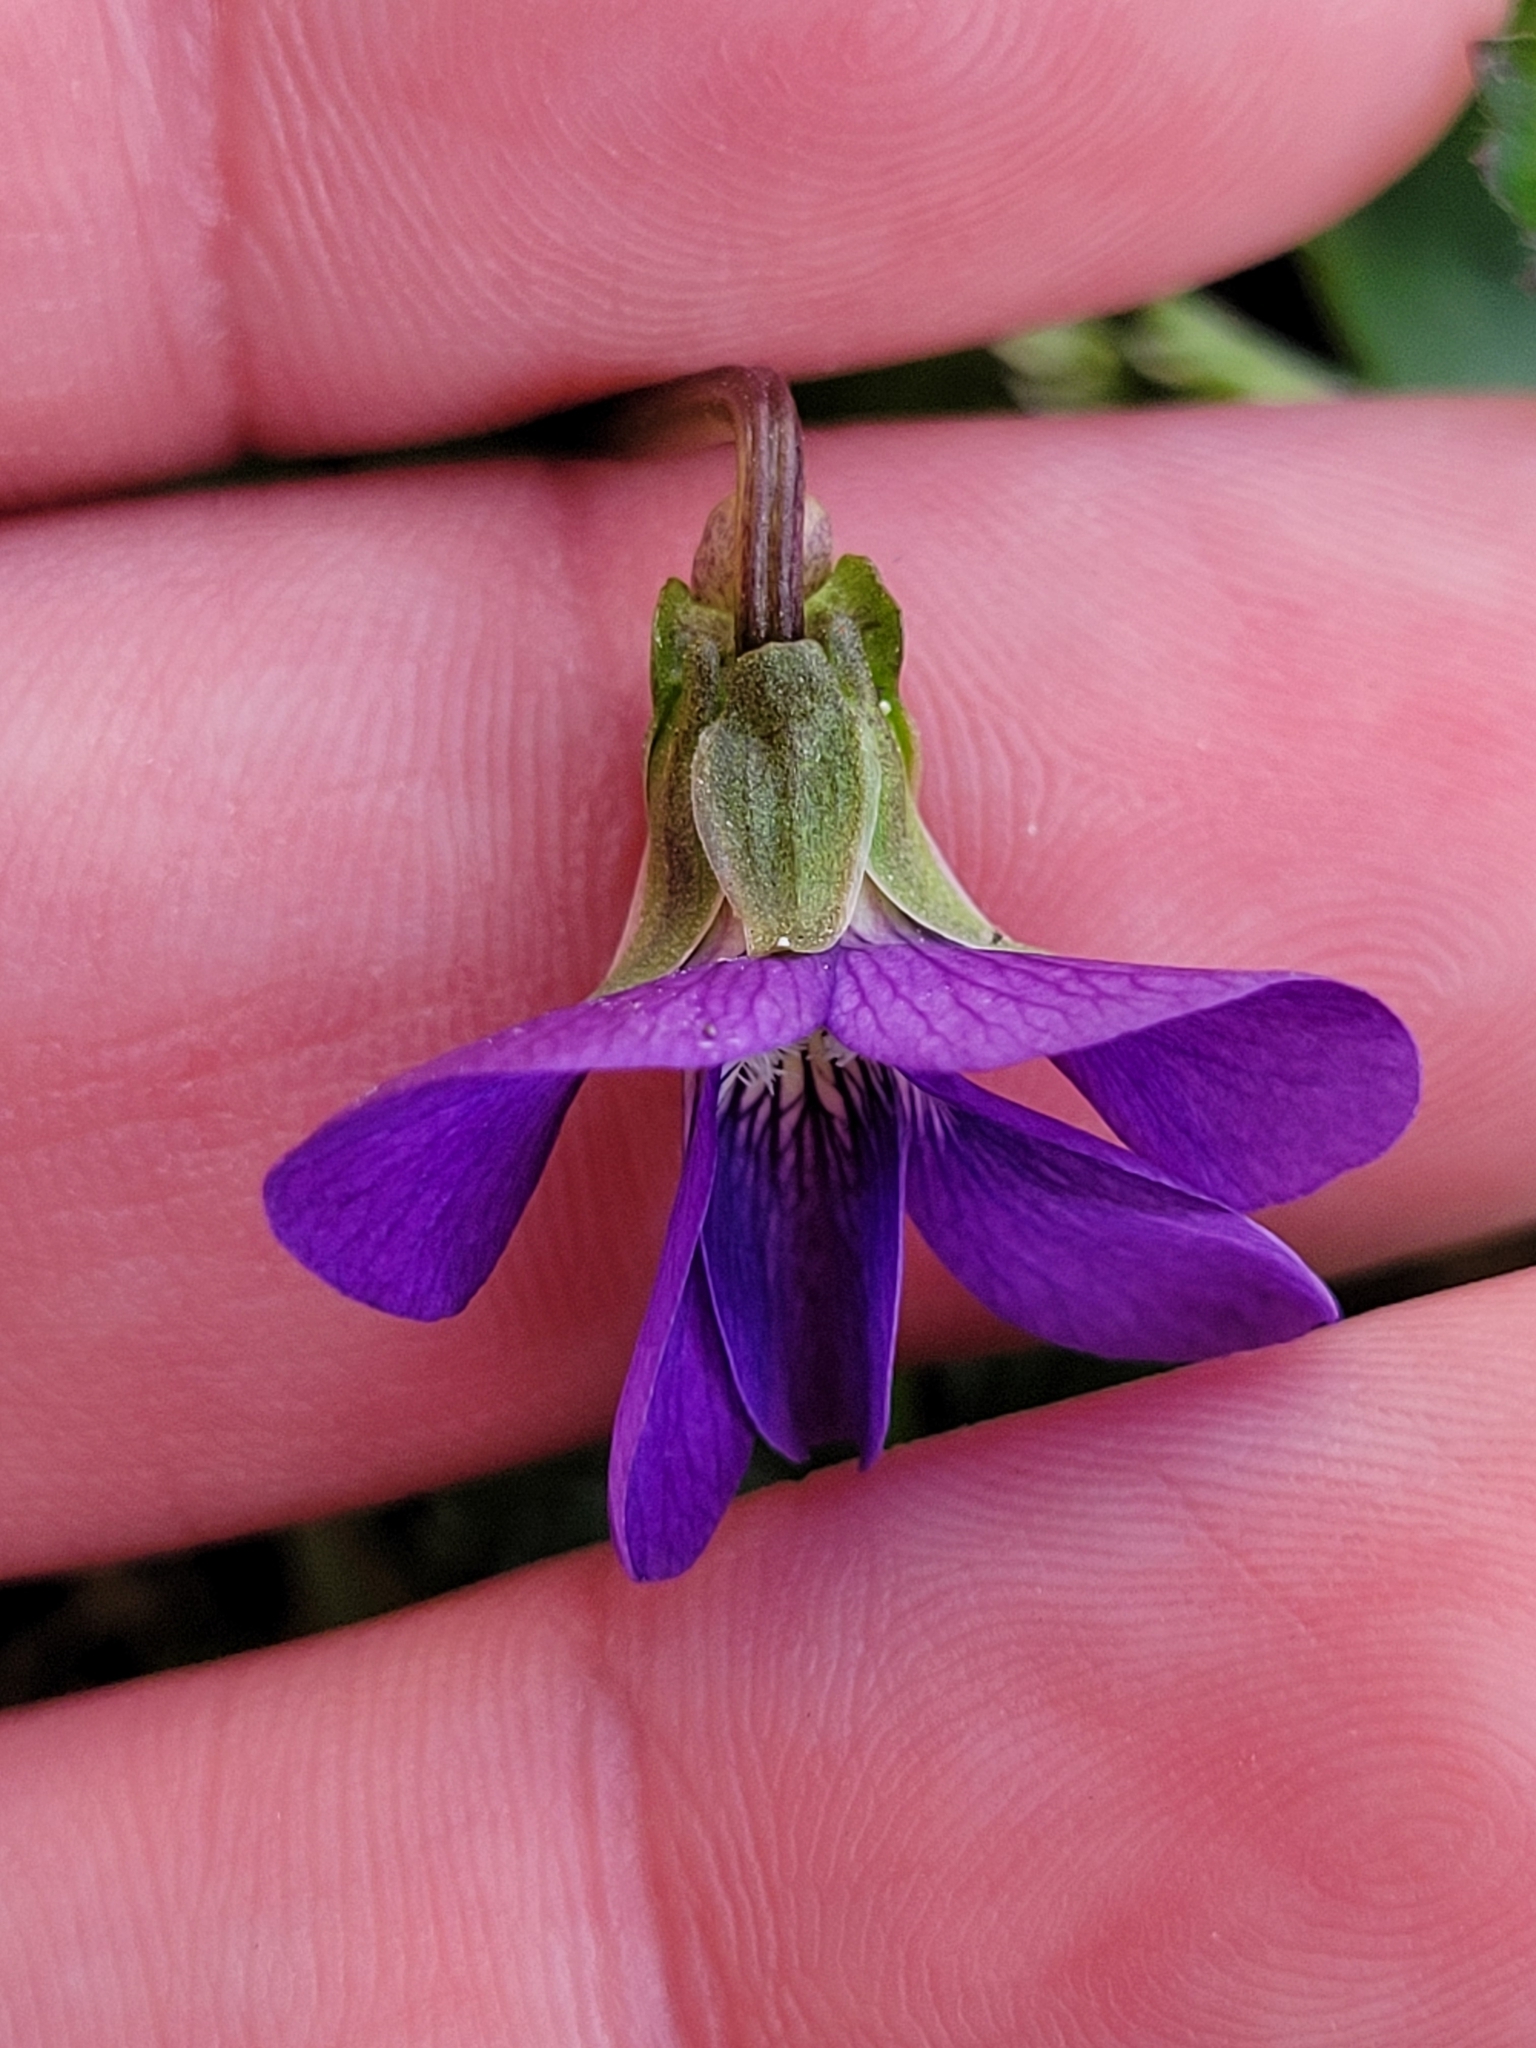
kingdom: Plantae
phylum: Tracheophyta
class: Magnoliopsida
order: Malpighiales
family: Violaceae
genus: Viola
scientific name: Viola sororia
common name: Dooryard violet
